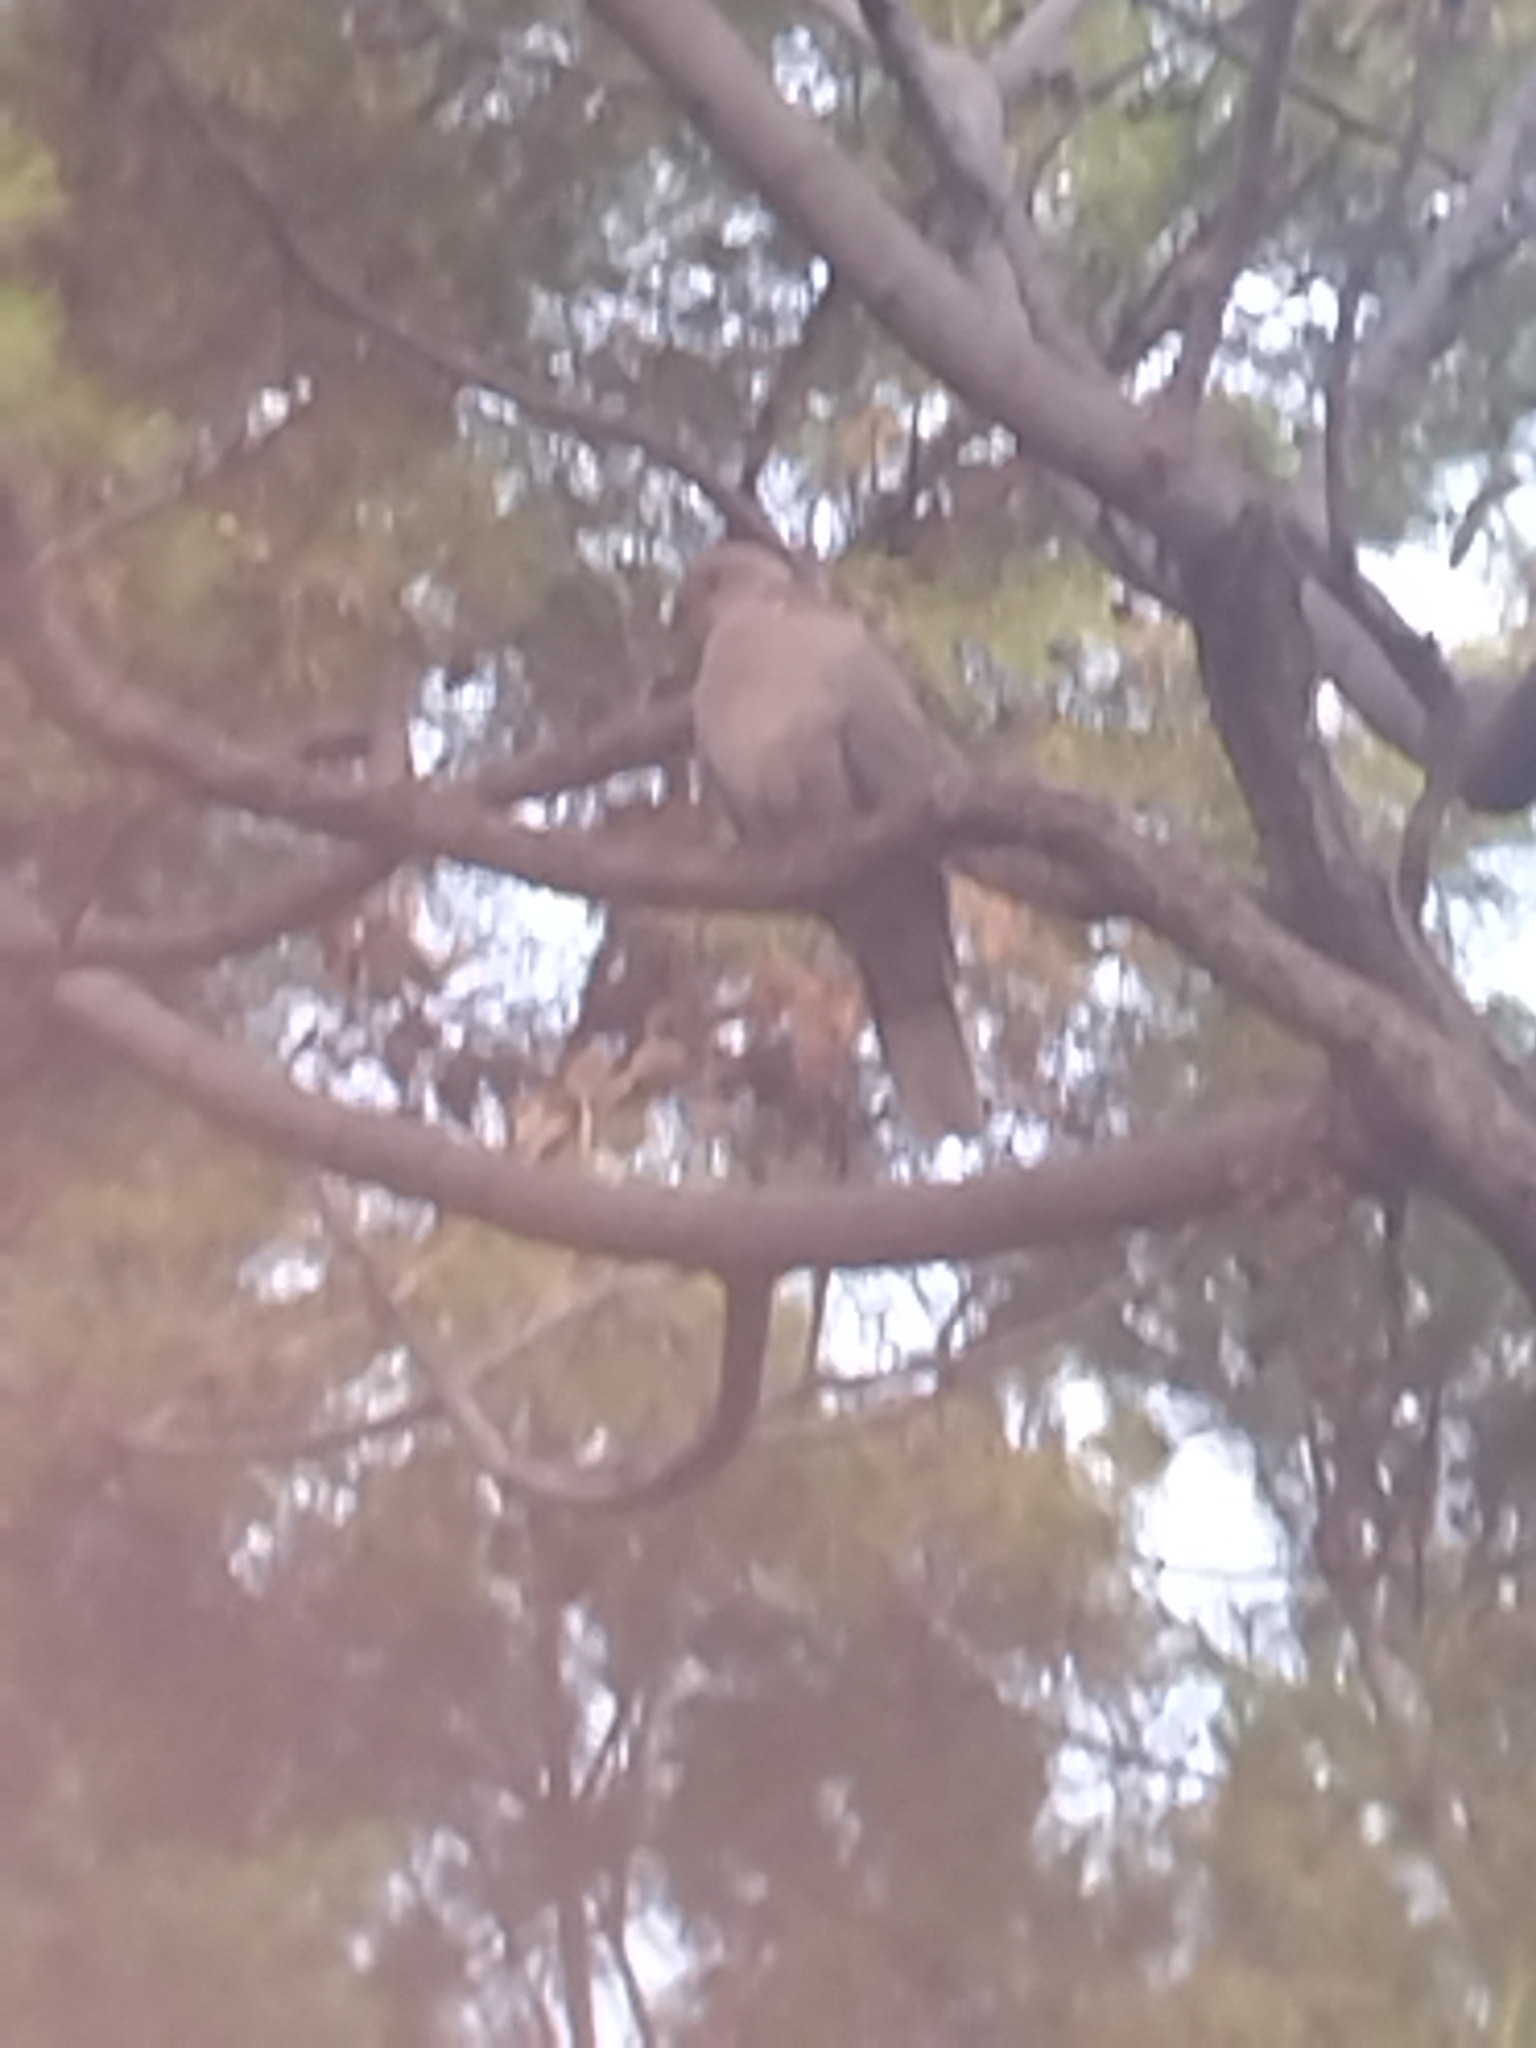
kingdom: Animalia
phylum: Chordata
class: Aves
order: Columbiformes
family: Columbidae
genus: Streptopelia
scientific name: Streptopelia decaocto
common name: Eurasian collared dove
